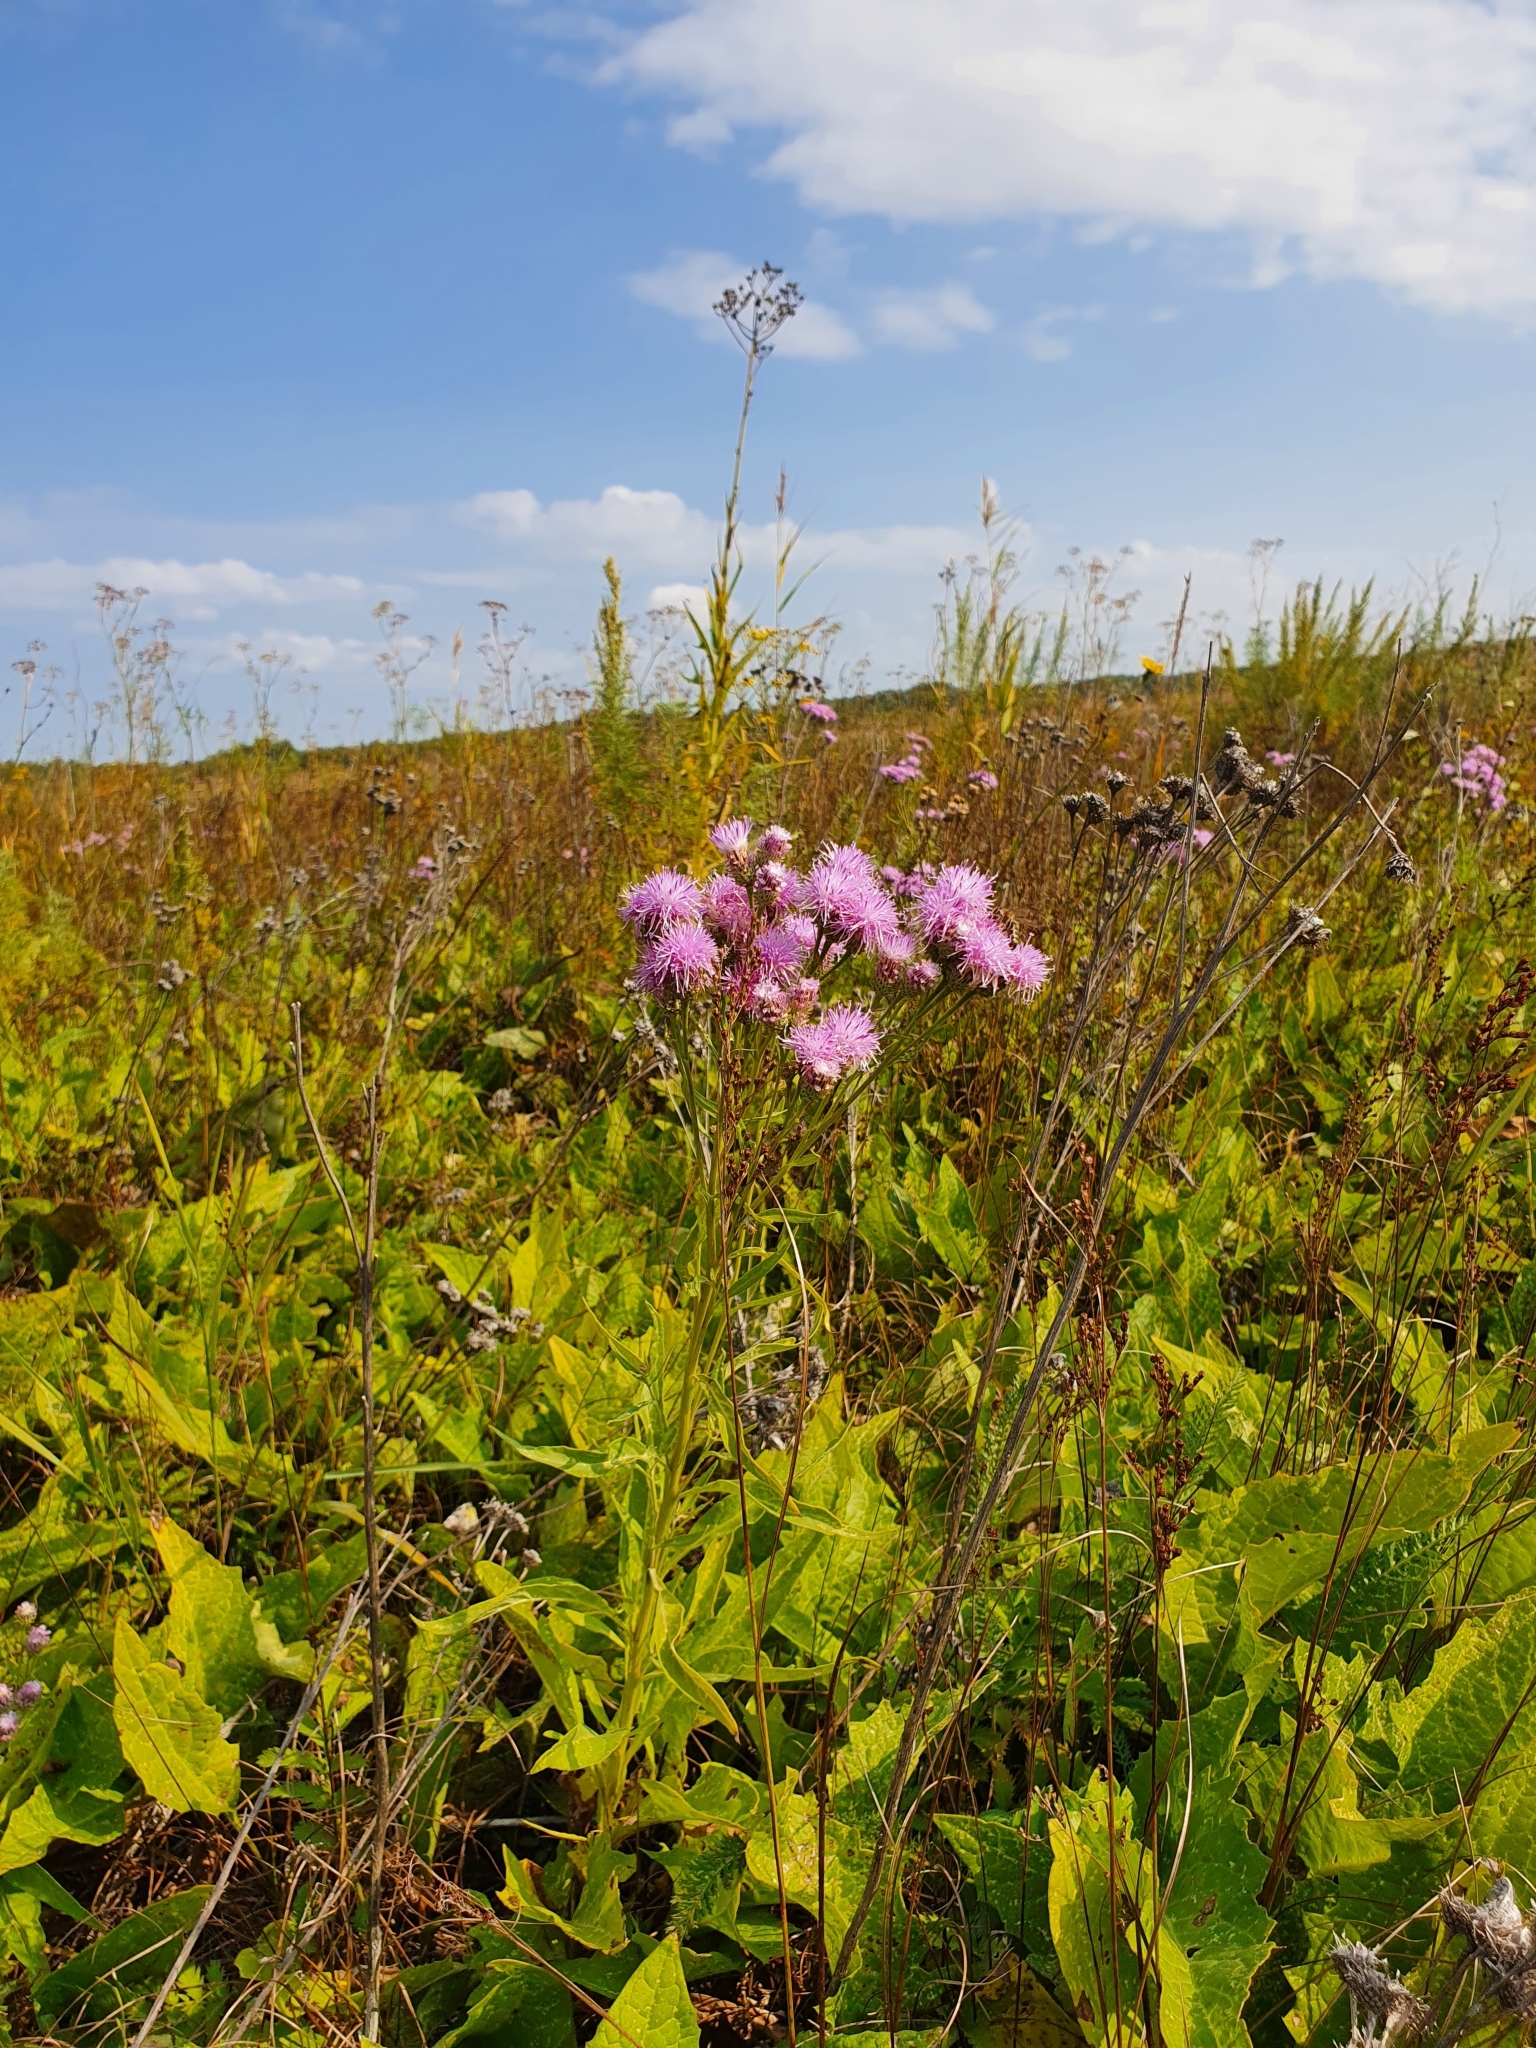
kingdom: Plantae
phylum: Tracheophyta
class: Magnoliopsida
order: Asterales
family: Asteraceae
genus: Saussurea
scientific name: Saussurea amara
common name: Alberta sawwort
